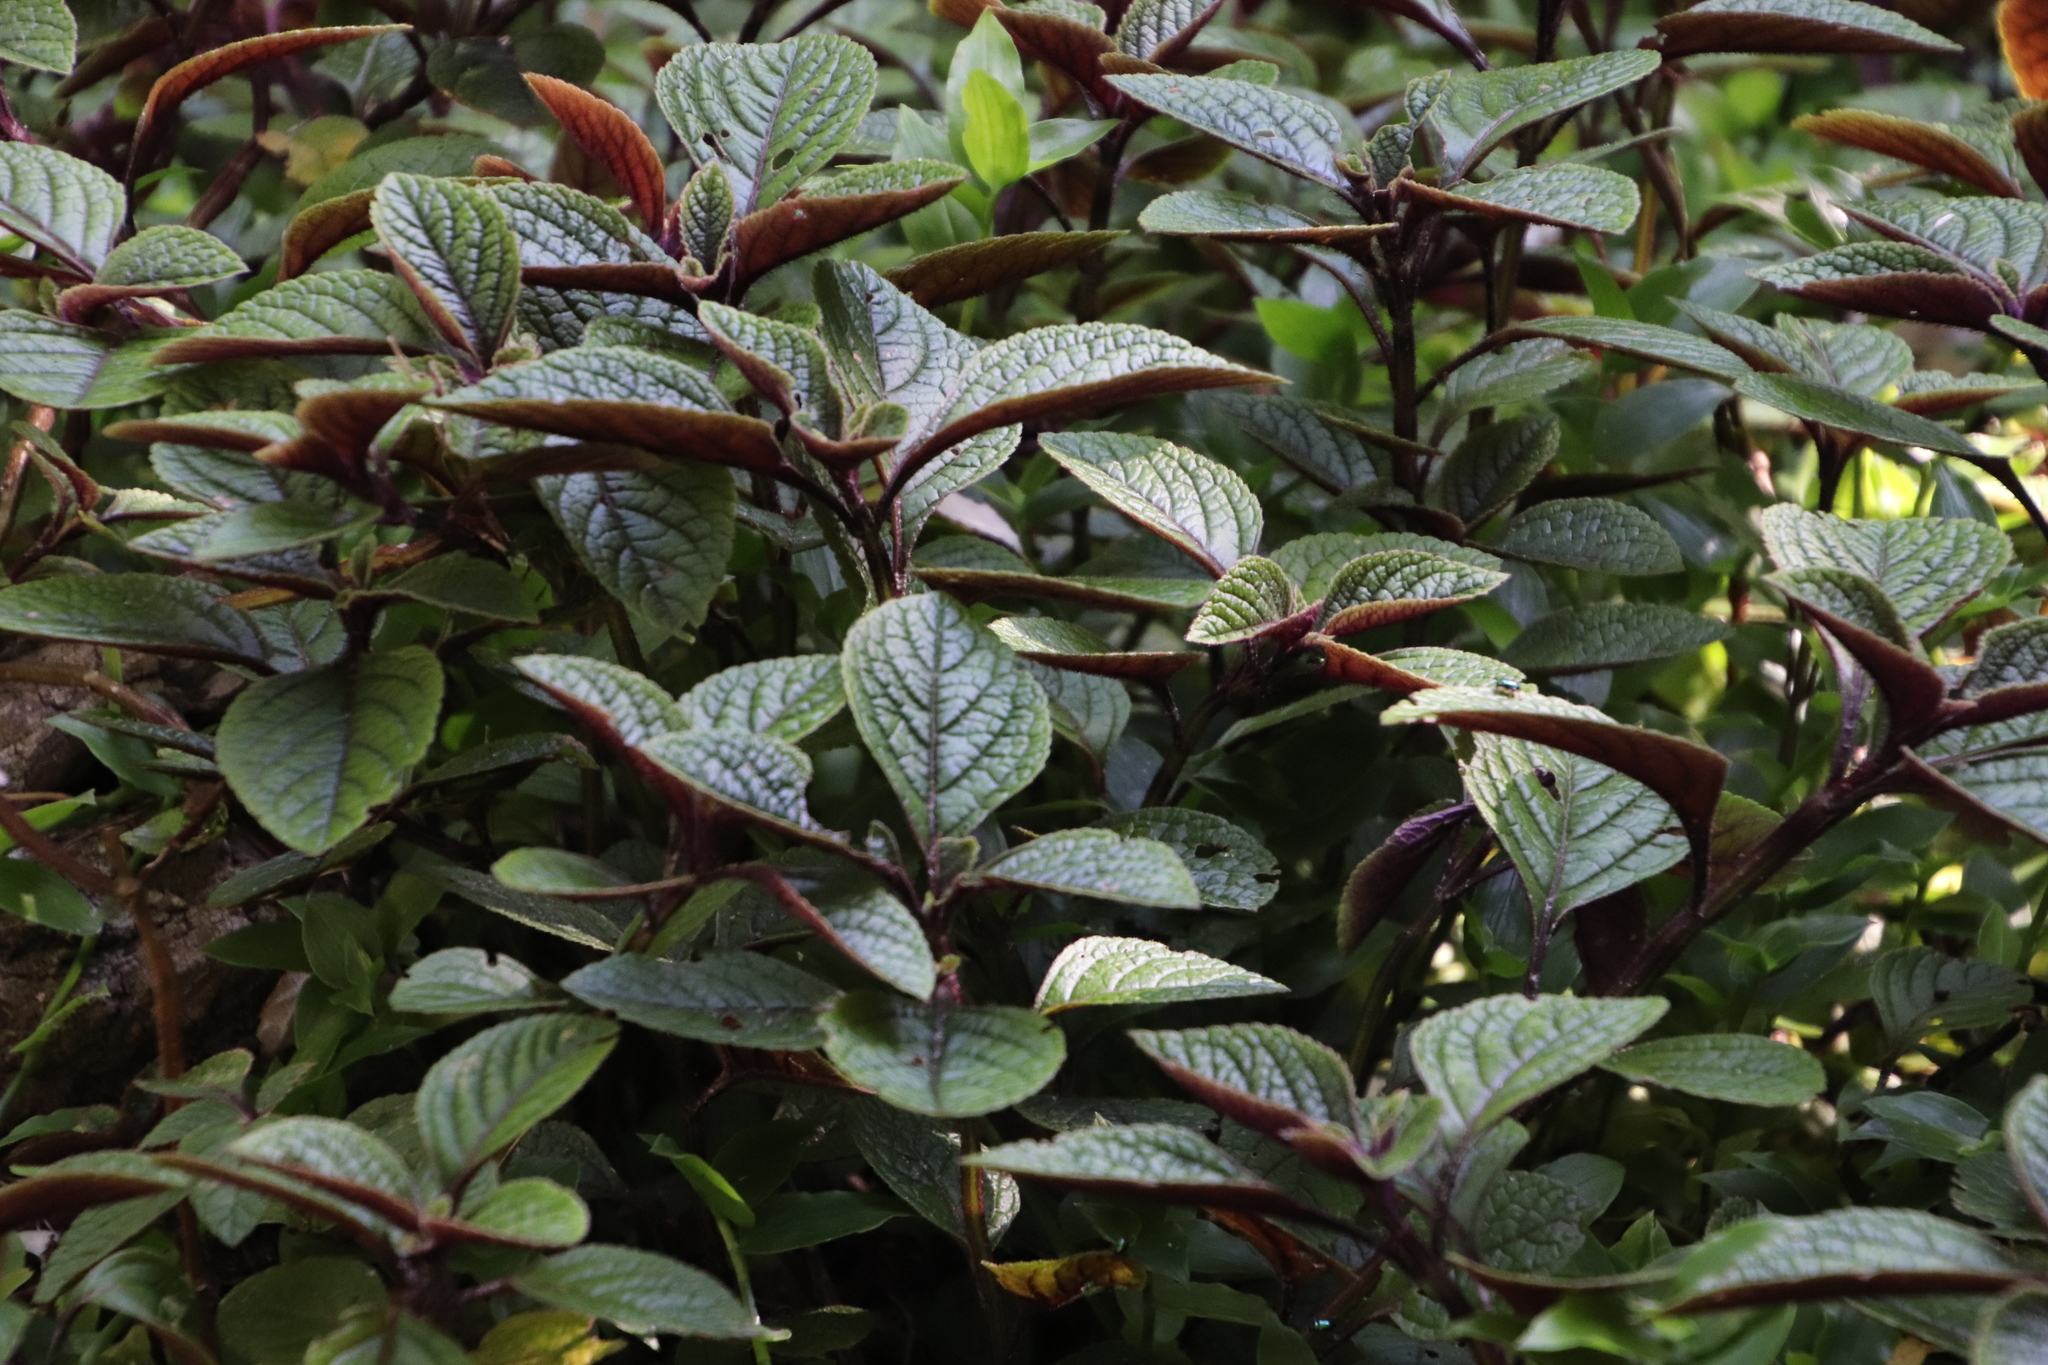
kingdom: Plantae
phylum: Tracheophyta
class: Magnoliopsida
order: Lamiales
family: Lamiaceae
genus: Plectranthus
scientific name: Plectranthus ciliatus
